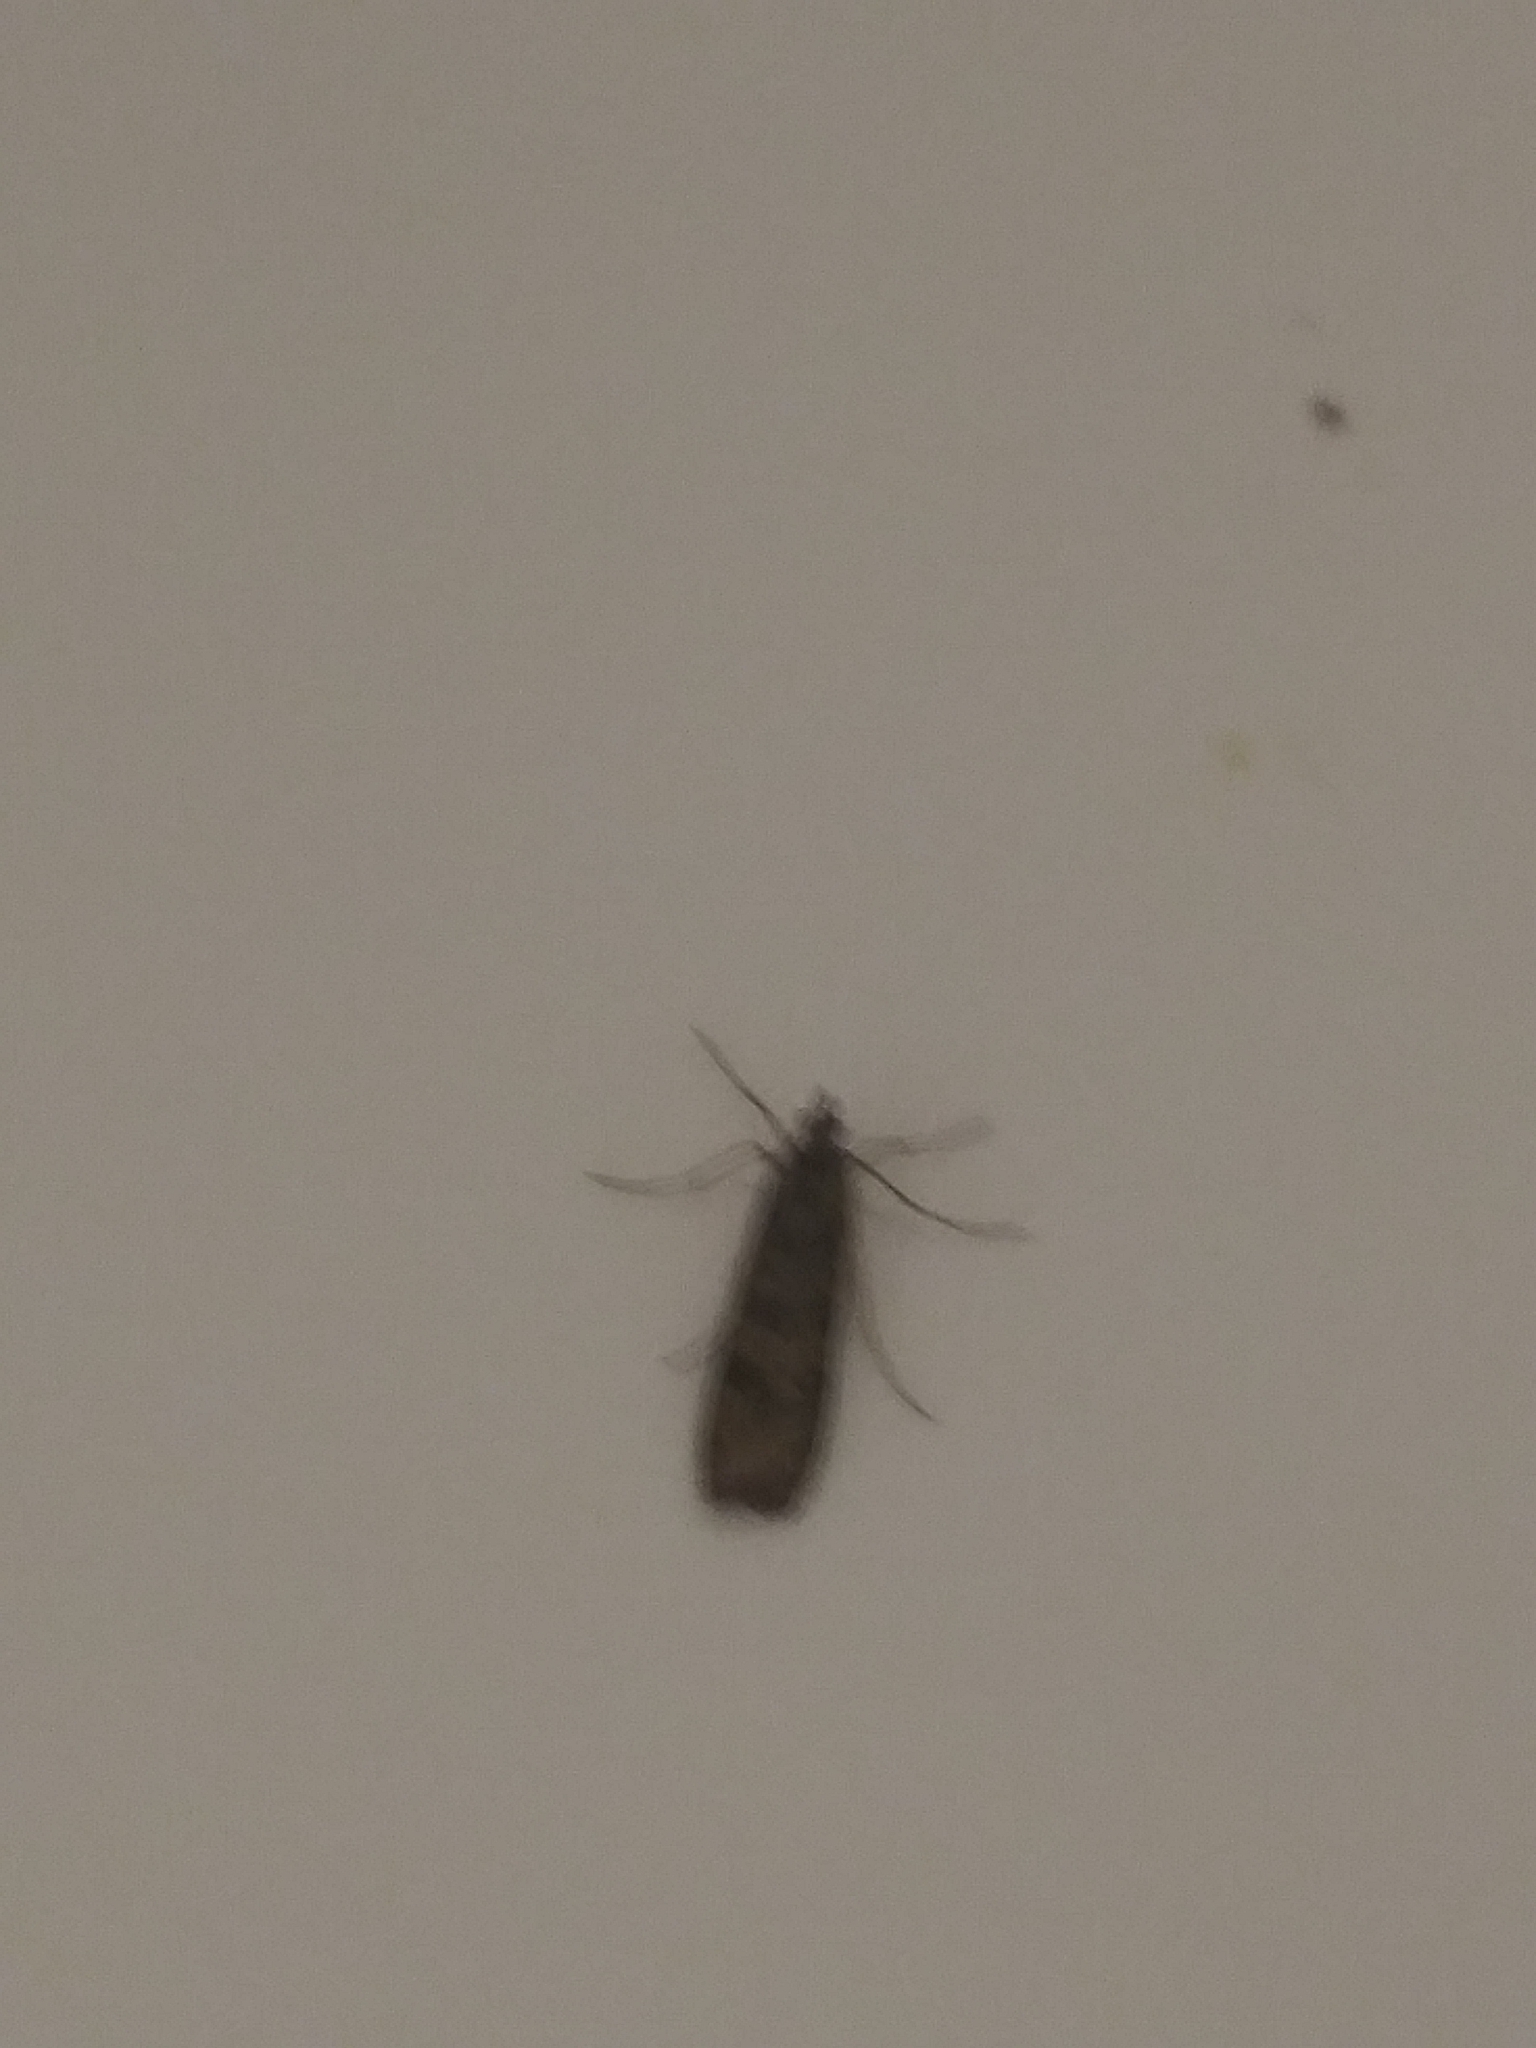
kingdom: Animalia
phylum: Arthropoda
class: Insecta
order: Lepidoptera
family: Crambidae
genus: Nomophila
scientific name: Nomophila noctuella
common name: Rush veneer
